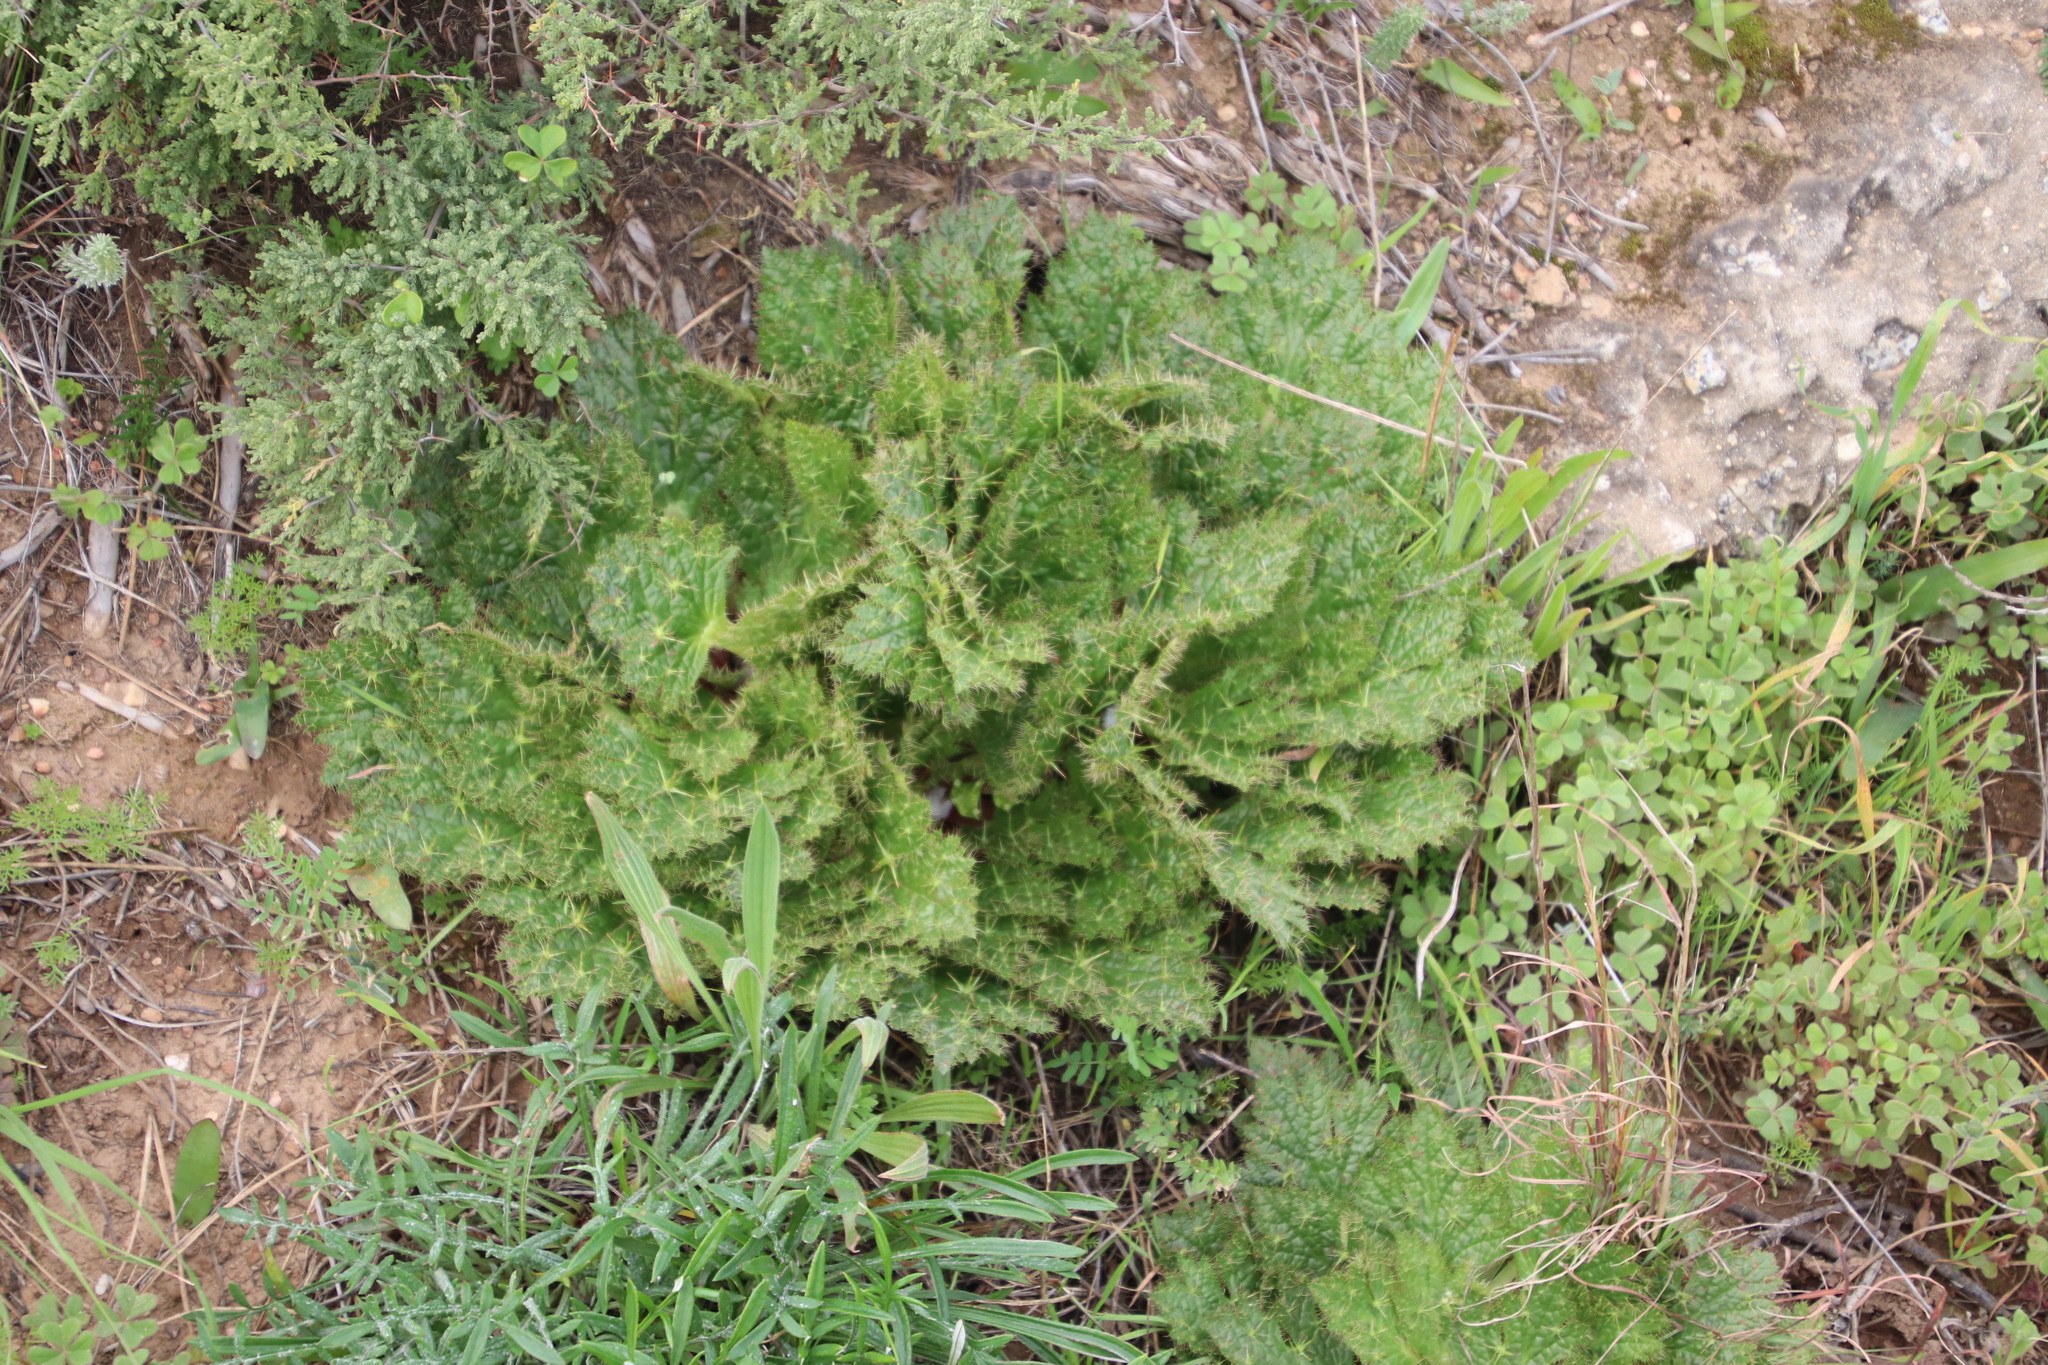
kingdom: Plantae
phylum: Tracheophyta
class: Magnoliopsida
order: Apiales
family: Apiaceae
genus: Arctopus
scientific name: Arctopus echinatus
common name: Platdoring
